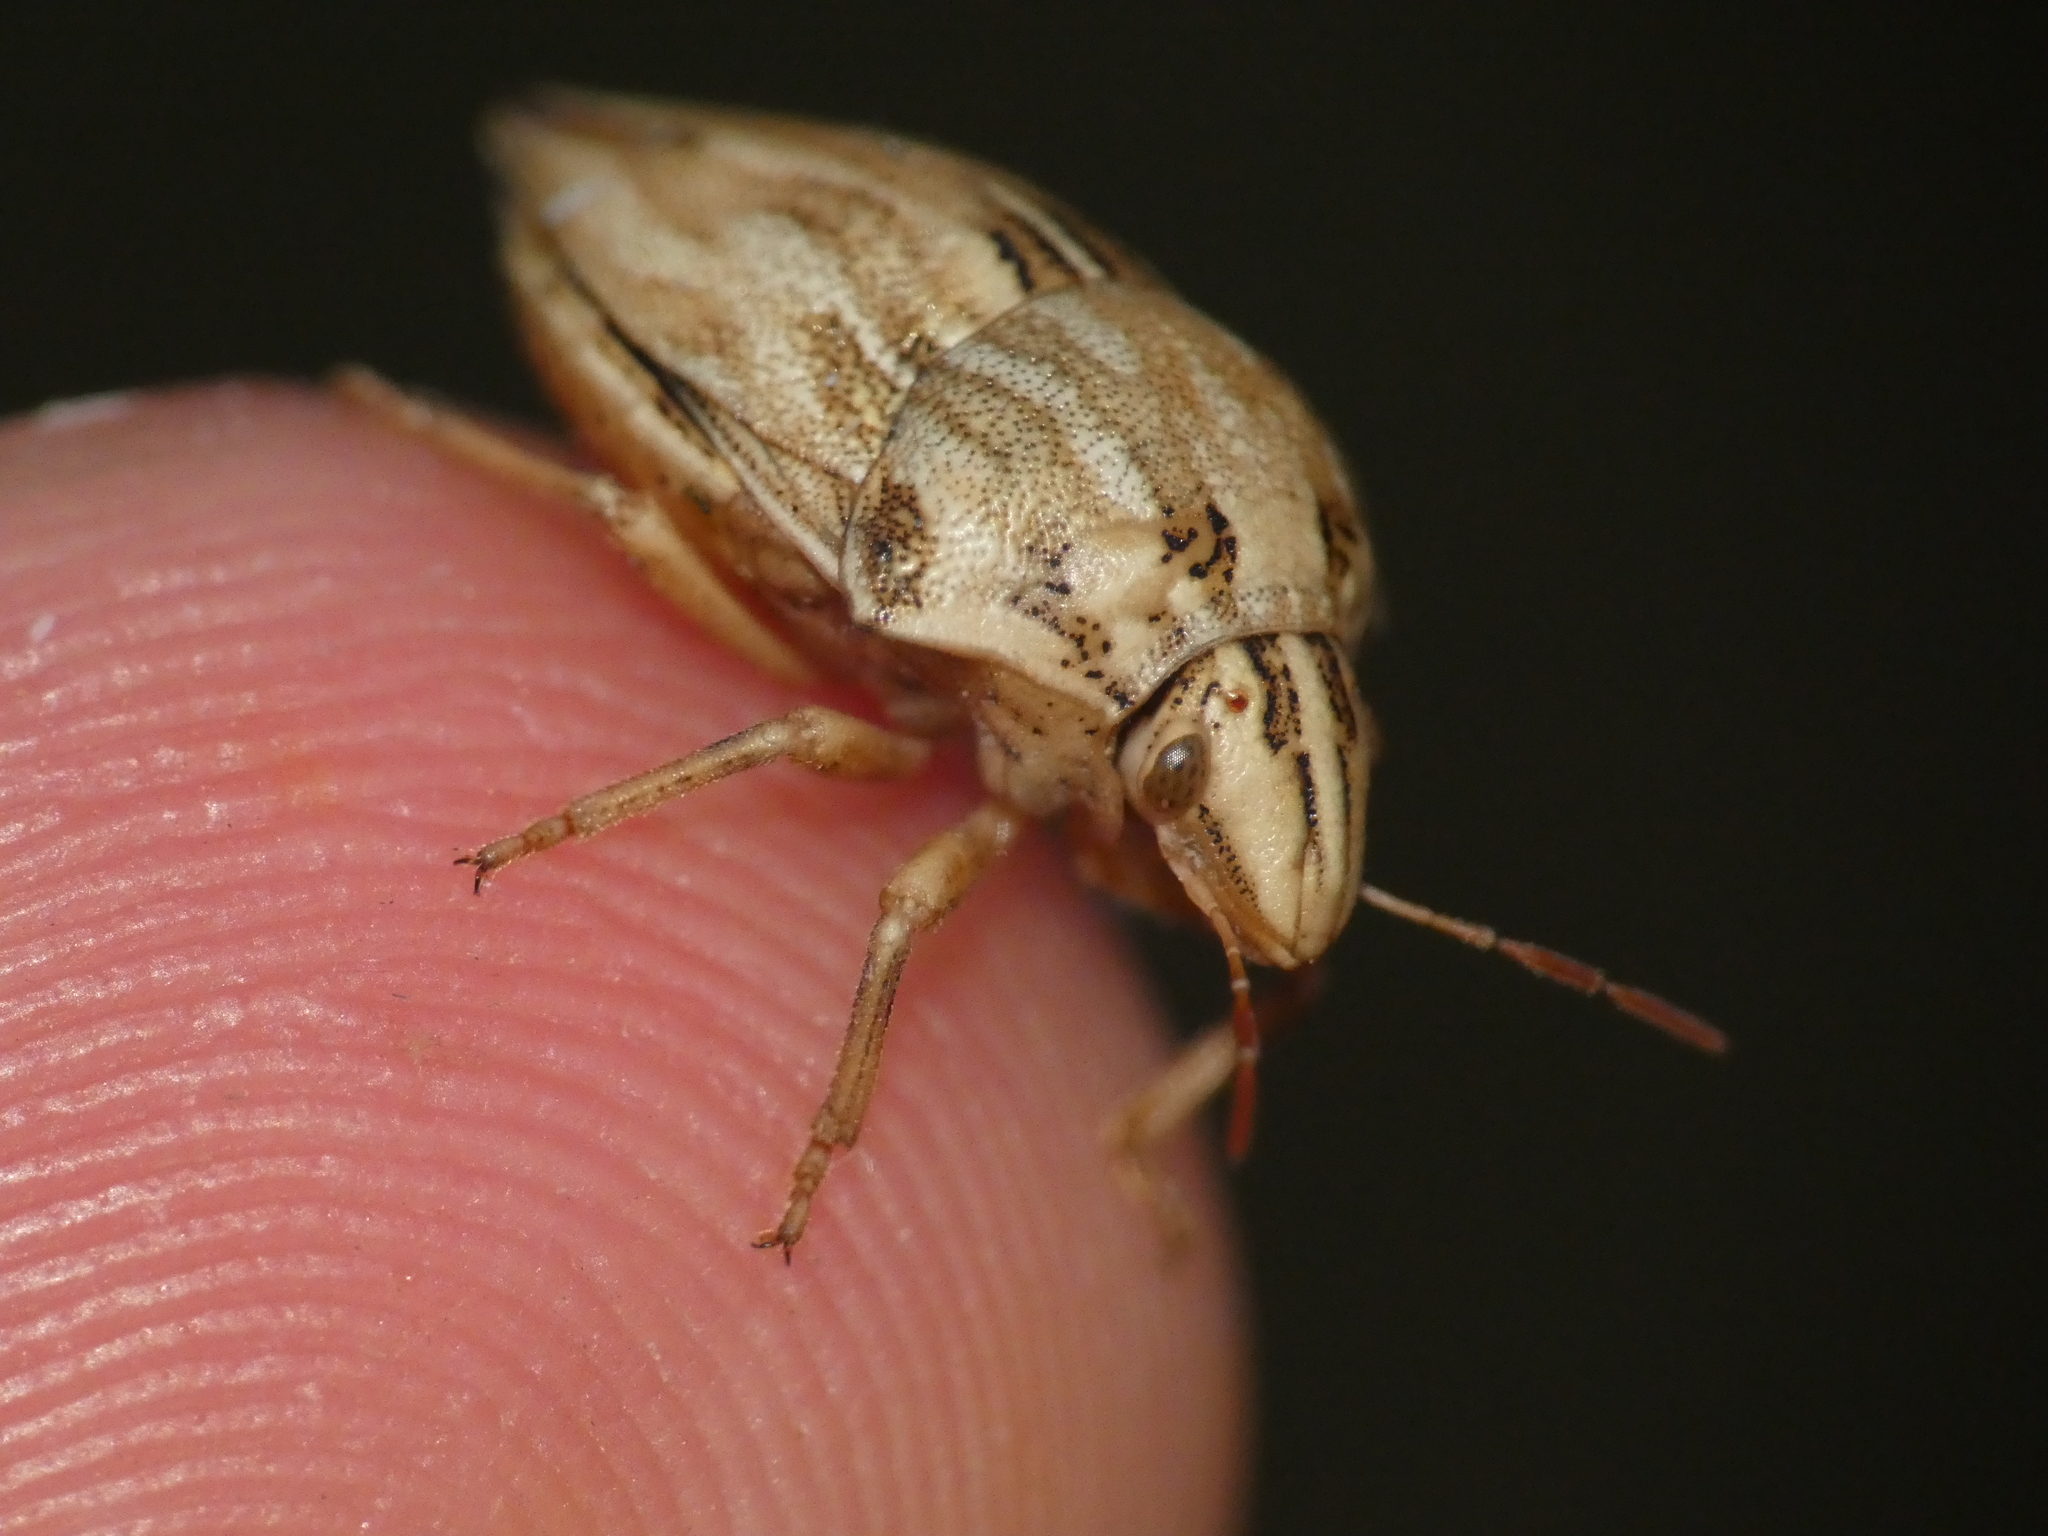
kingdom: Animalia
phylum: Arthropoda
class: Insecta
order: Hemiptera
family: Scutelleridae
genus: Odontotarsus
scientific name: Odontotarsus robustus
